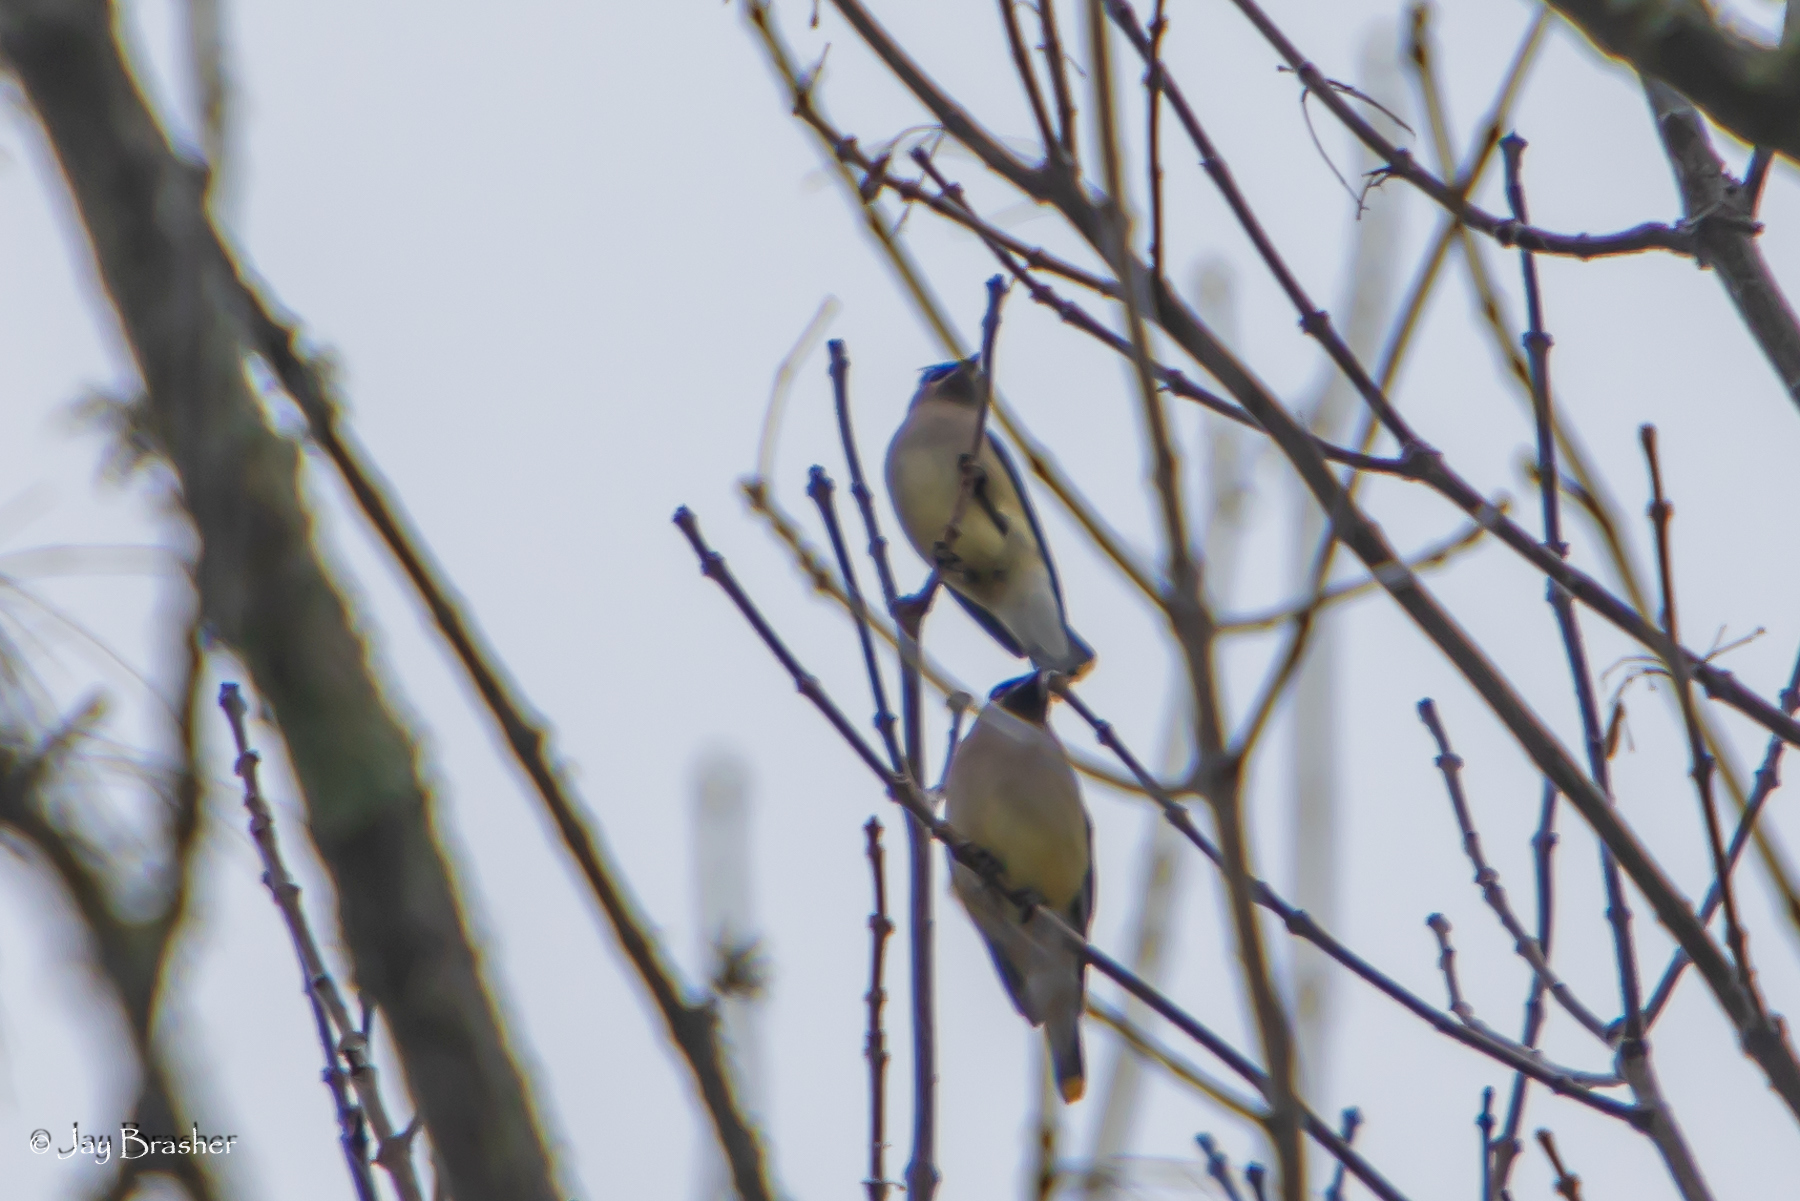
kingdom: Animalia
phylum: Chordata
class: Aves
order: Passeriformes
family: Bombycillidae
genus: Bombycilla
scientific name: Bombycilla cedrorum
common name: Cedar waxwing
